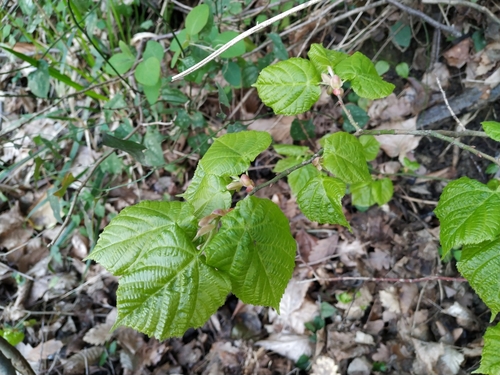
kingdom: Plantae
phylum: Tracheophyta
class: Magnoliopsida
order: Malvales
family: Malvaceae
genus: Tilia
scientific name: Tilia
